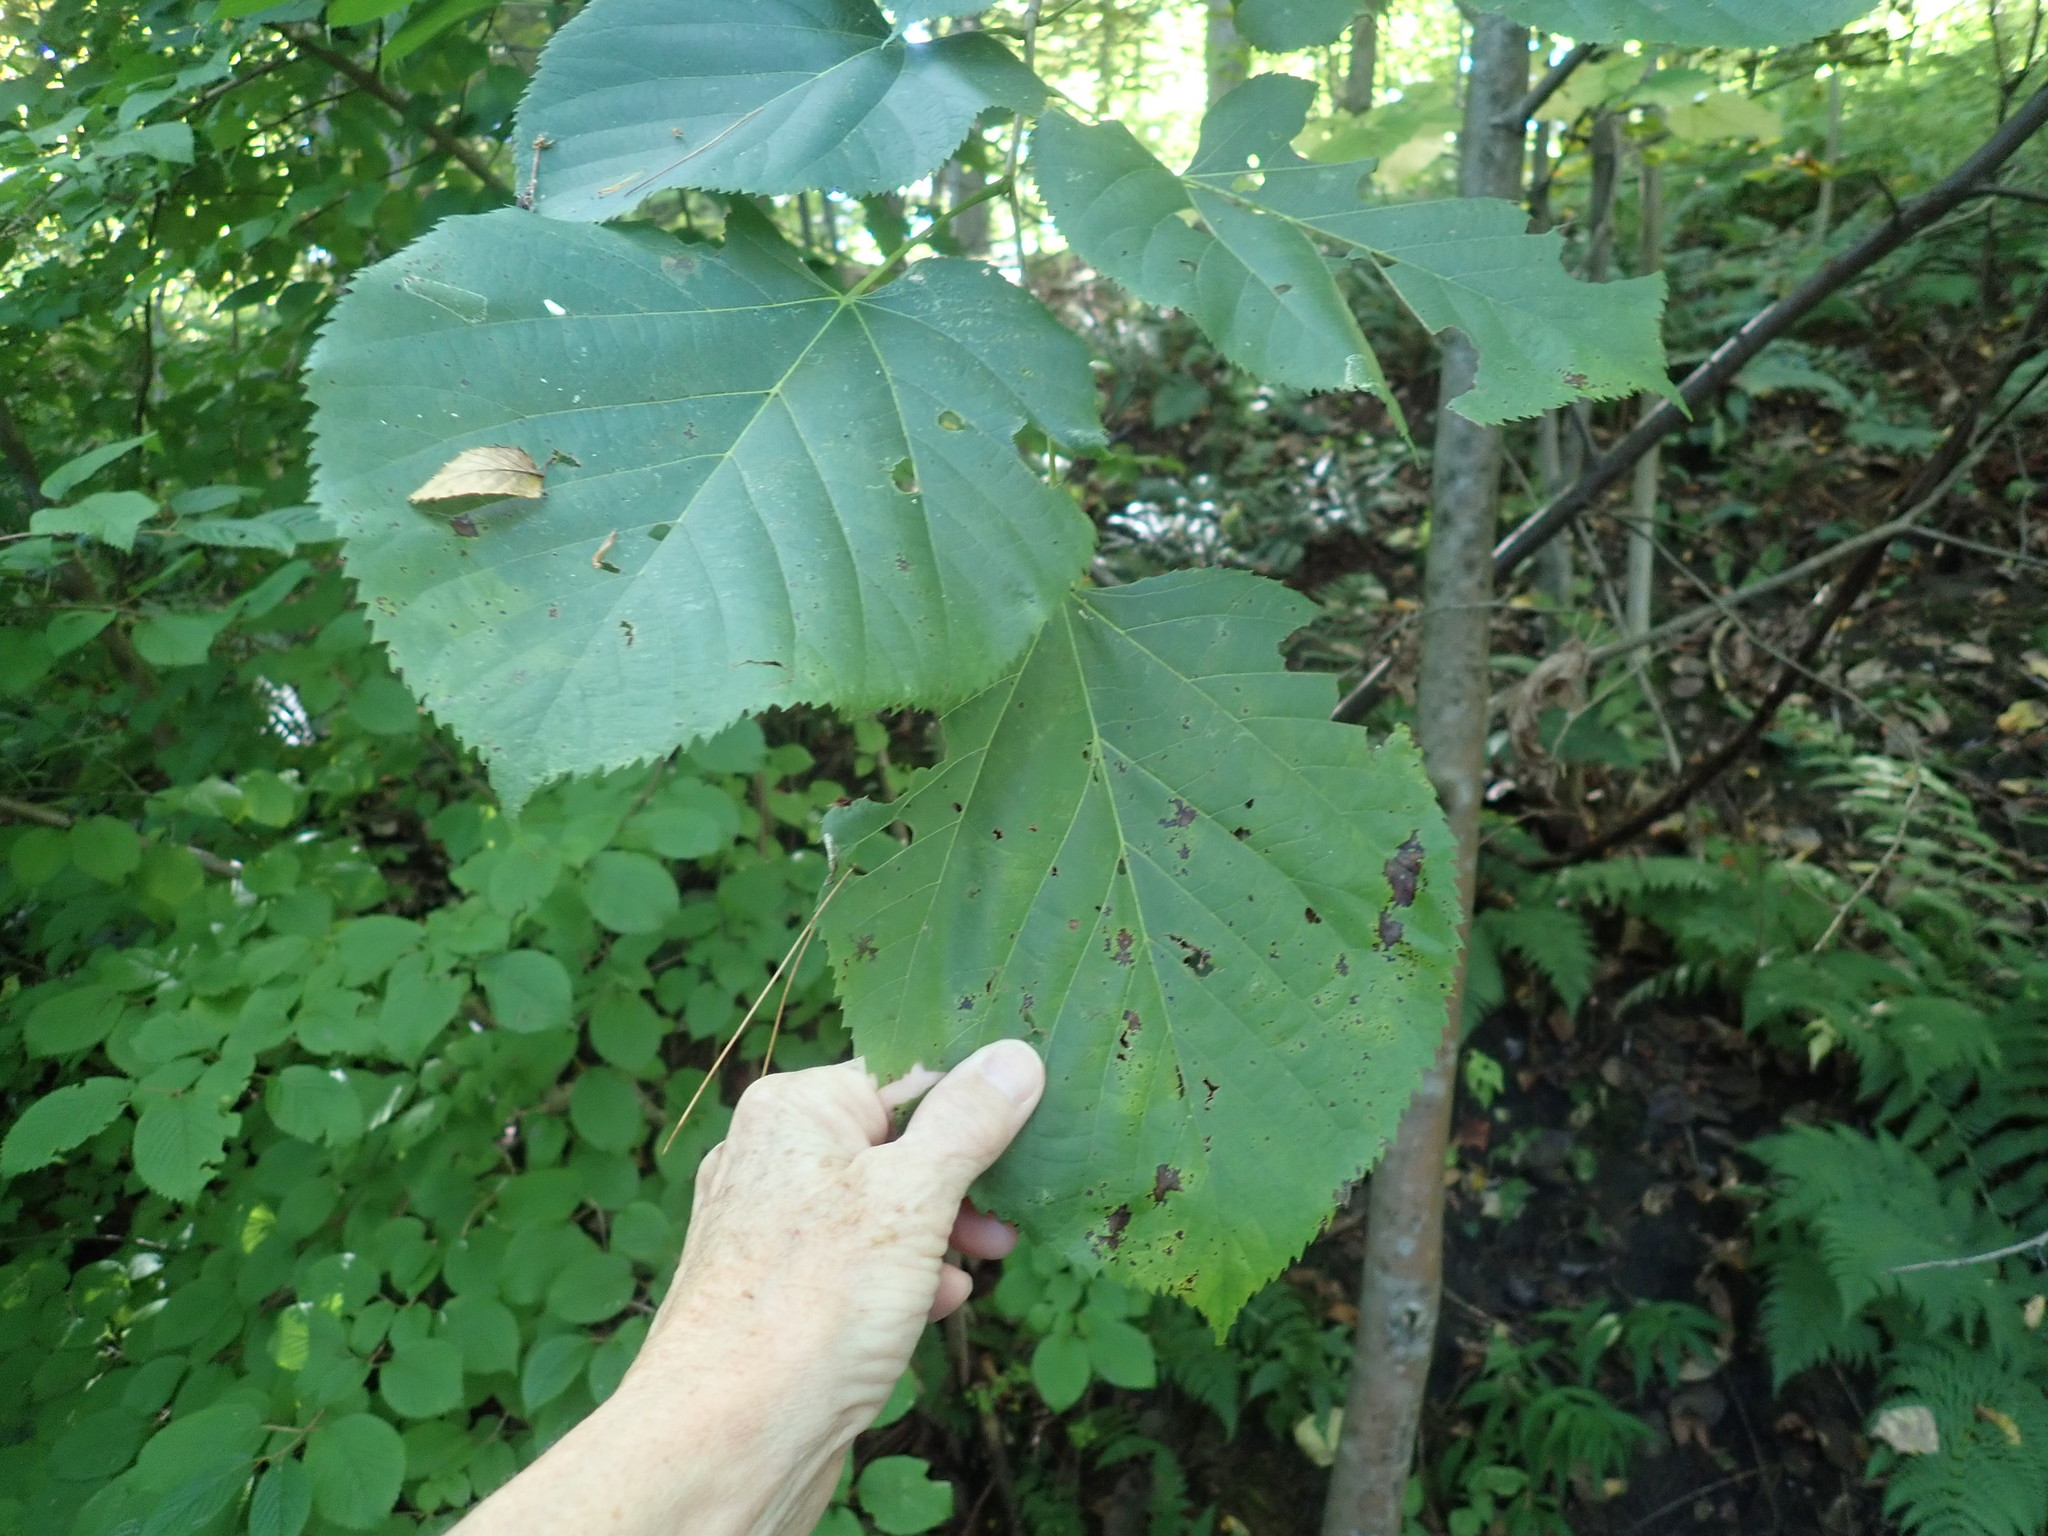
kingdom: Plantae
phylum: Tracheophyta
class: Magnoliopsida
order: Malvales
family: Malvaceae
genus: Tilia
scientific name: Tilia americana
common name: Basswood
